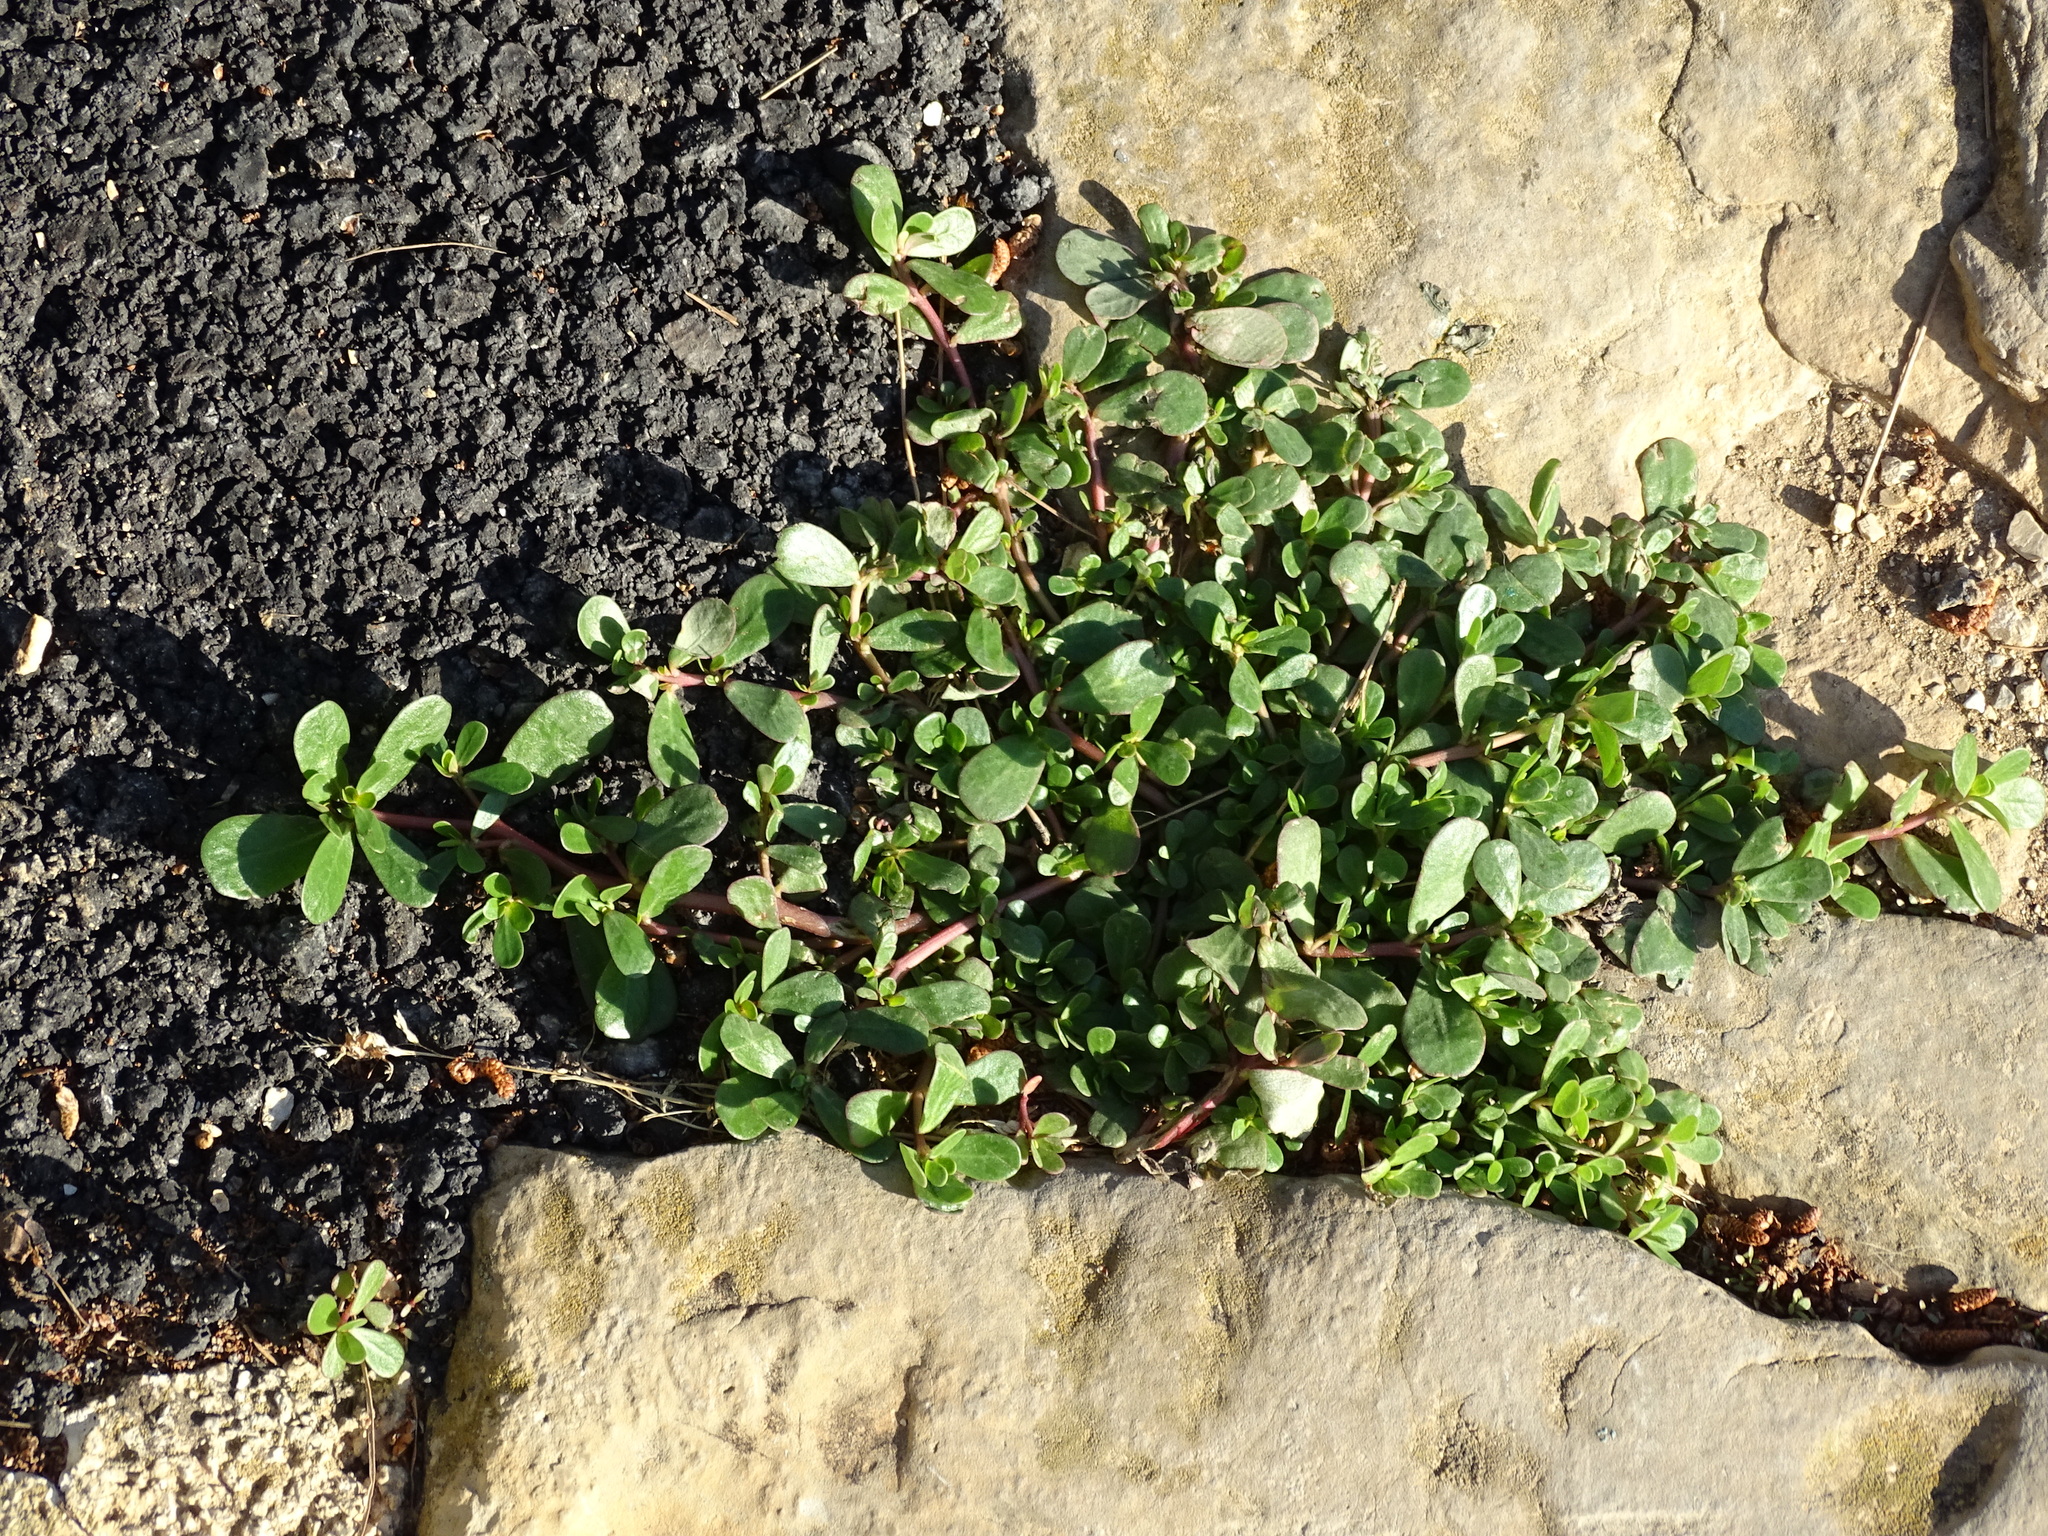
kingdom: Plantae
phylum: Tracheophyta
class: Magnoliopsida
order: Caryophyllales
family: Portulacaceae
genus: Portulaca
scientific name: Portulaca oleracea
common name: Common purslane
